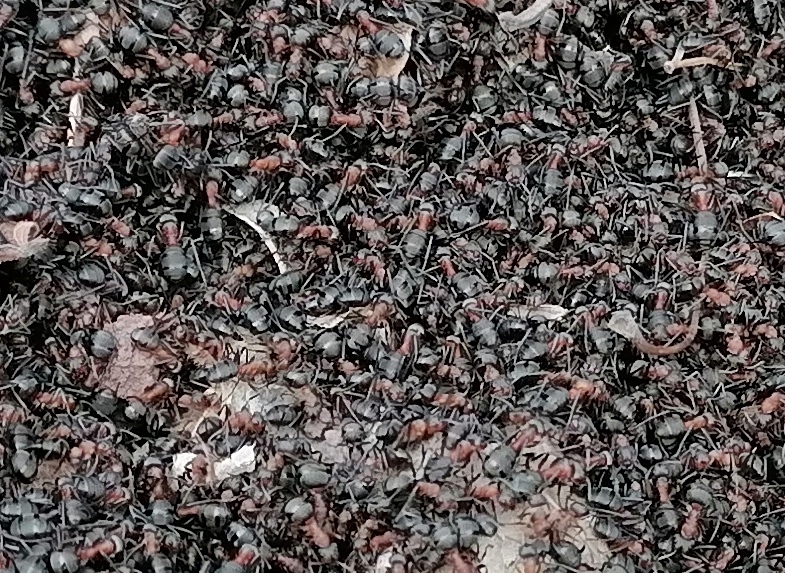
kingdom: Animalia
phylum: Arthropoda
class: Insecta
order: Hymenoptera
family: Formicidae
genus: Formica
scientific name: Formica rufa
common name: Red wood ant
